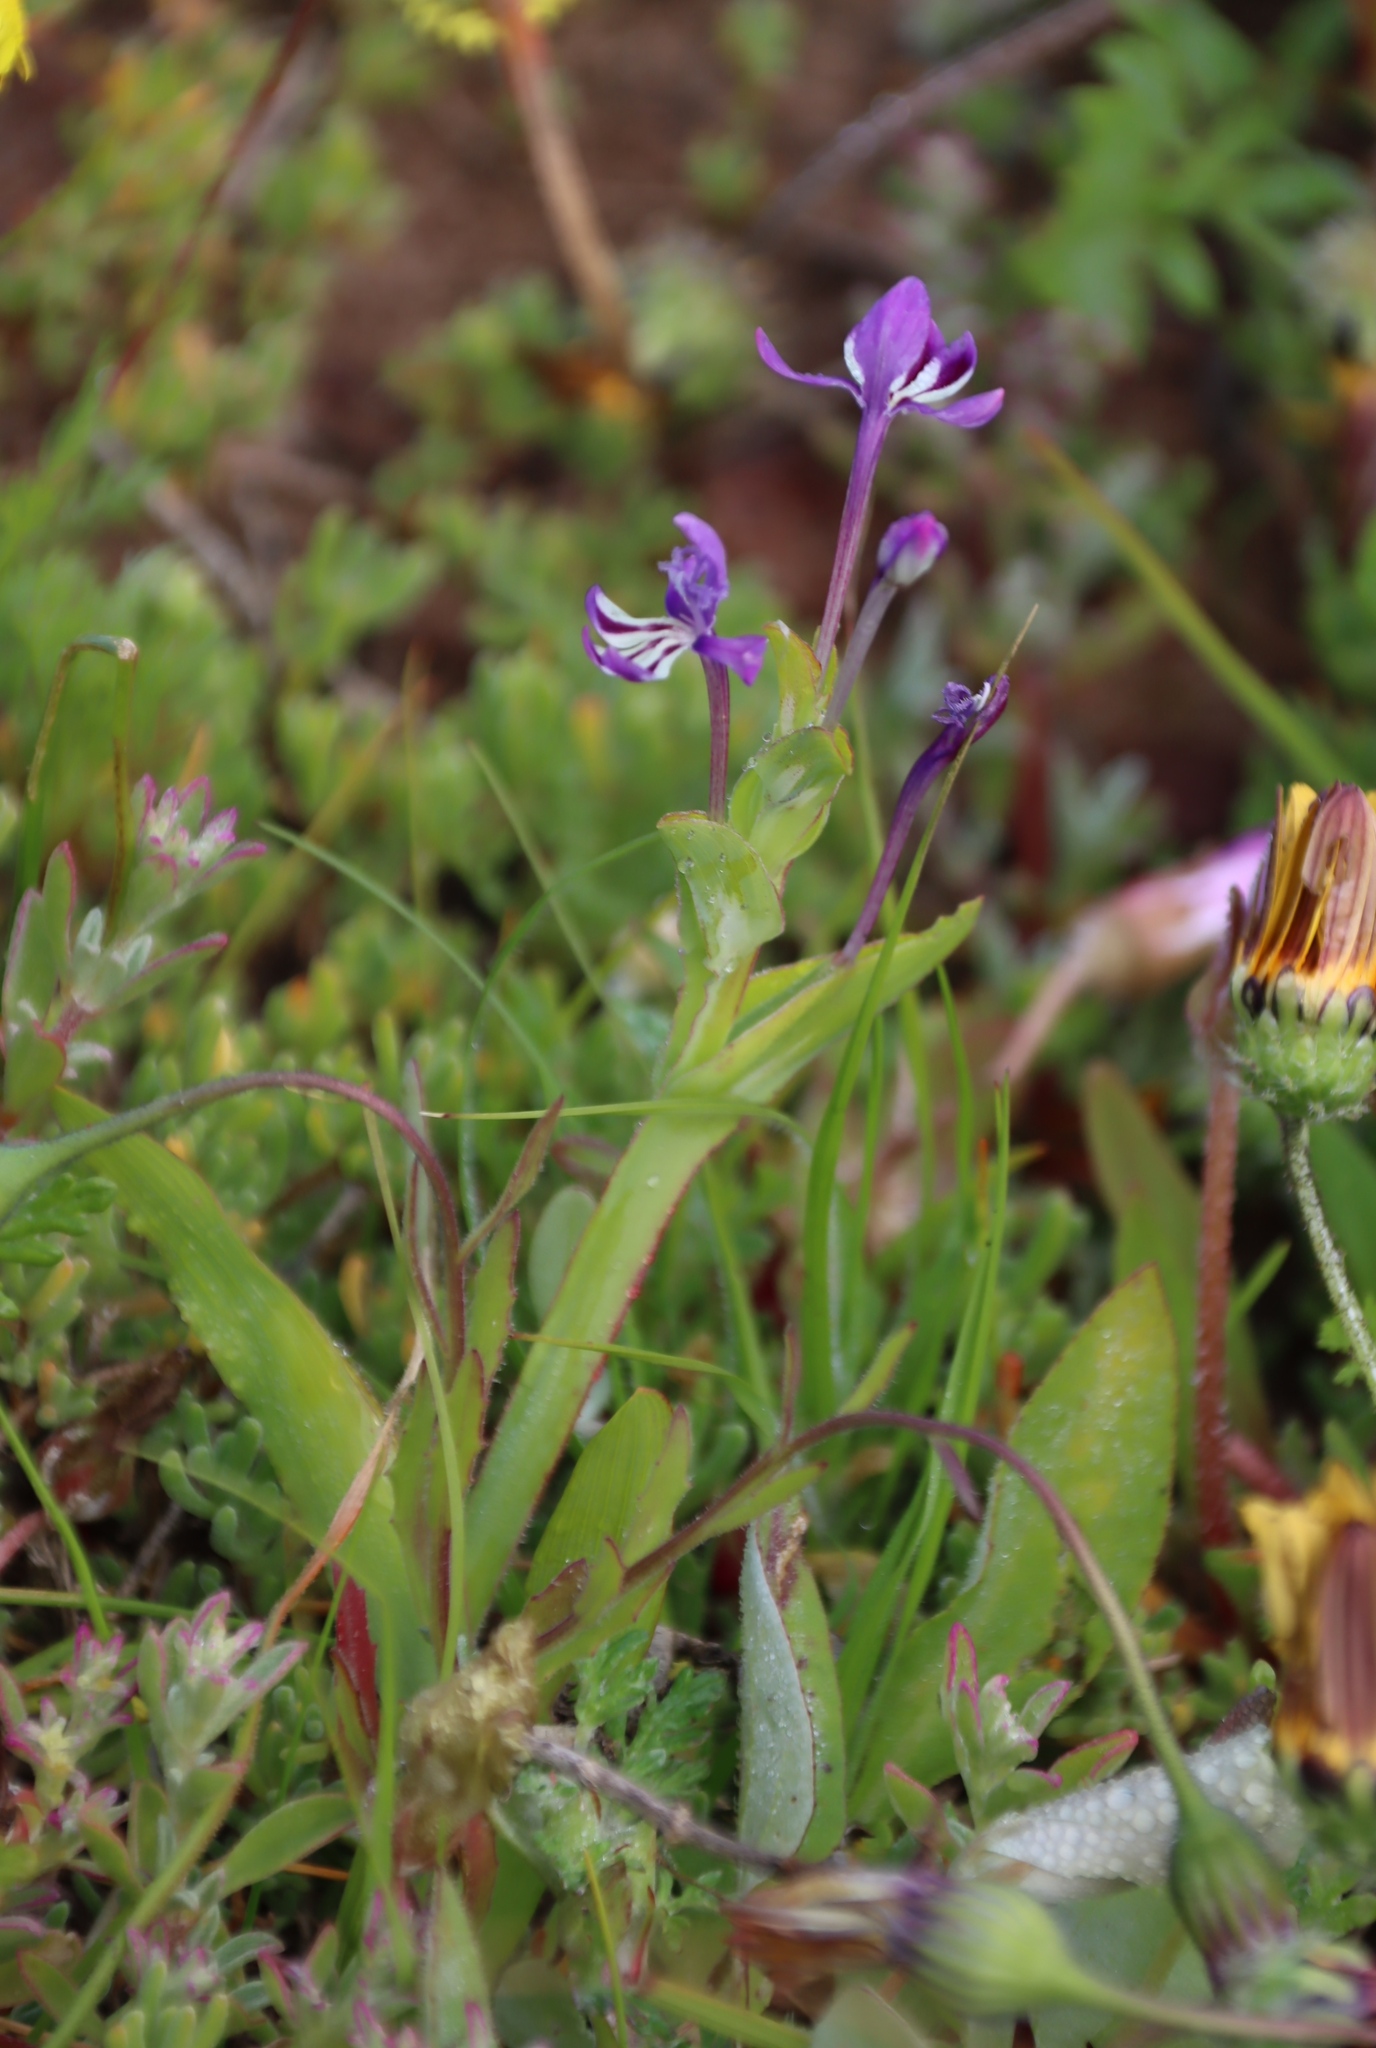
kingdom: Plantae
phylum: Tracheophyta
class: Liliopsida
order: Asparagales
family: Iridaceae
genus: Lapeirousia
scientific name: Lapeirousia jacquinii
